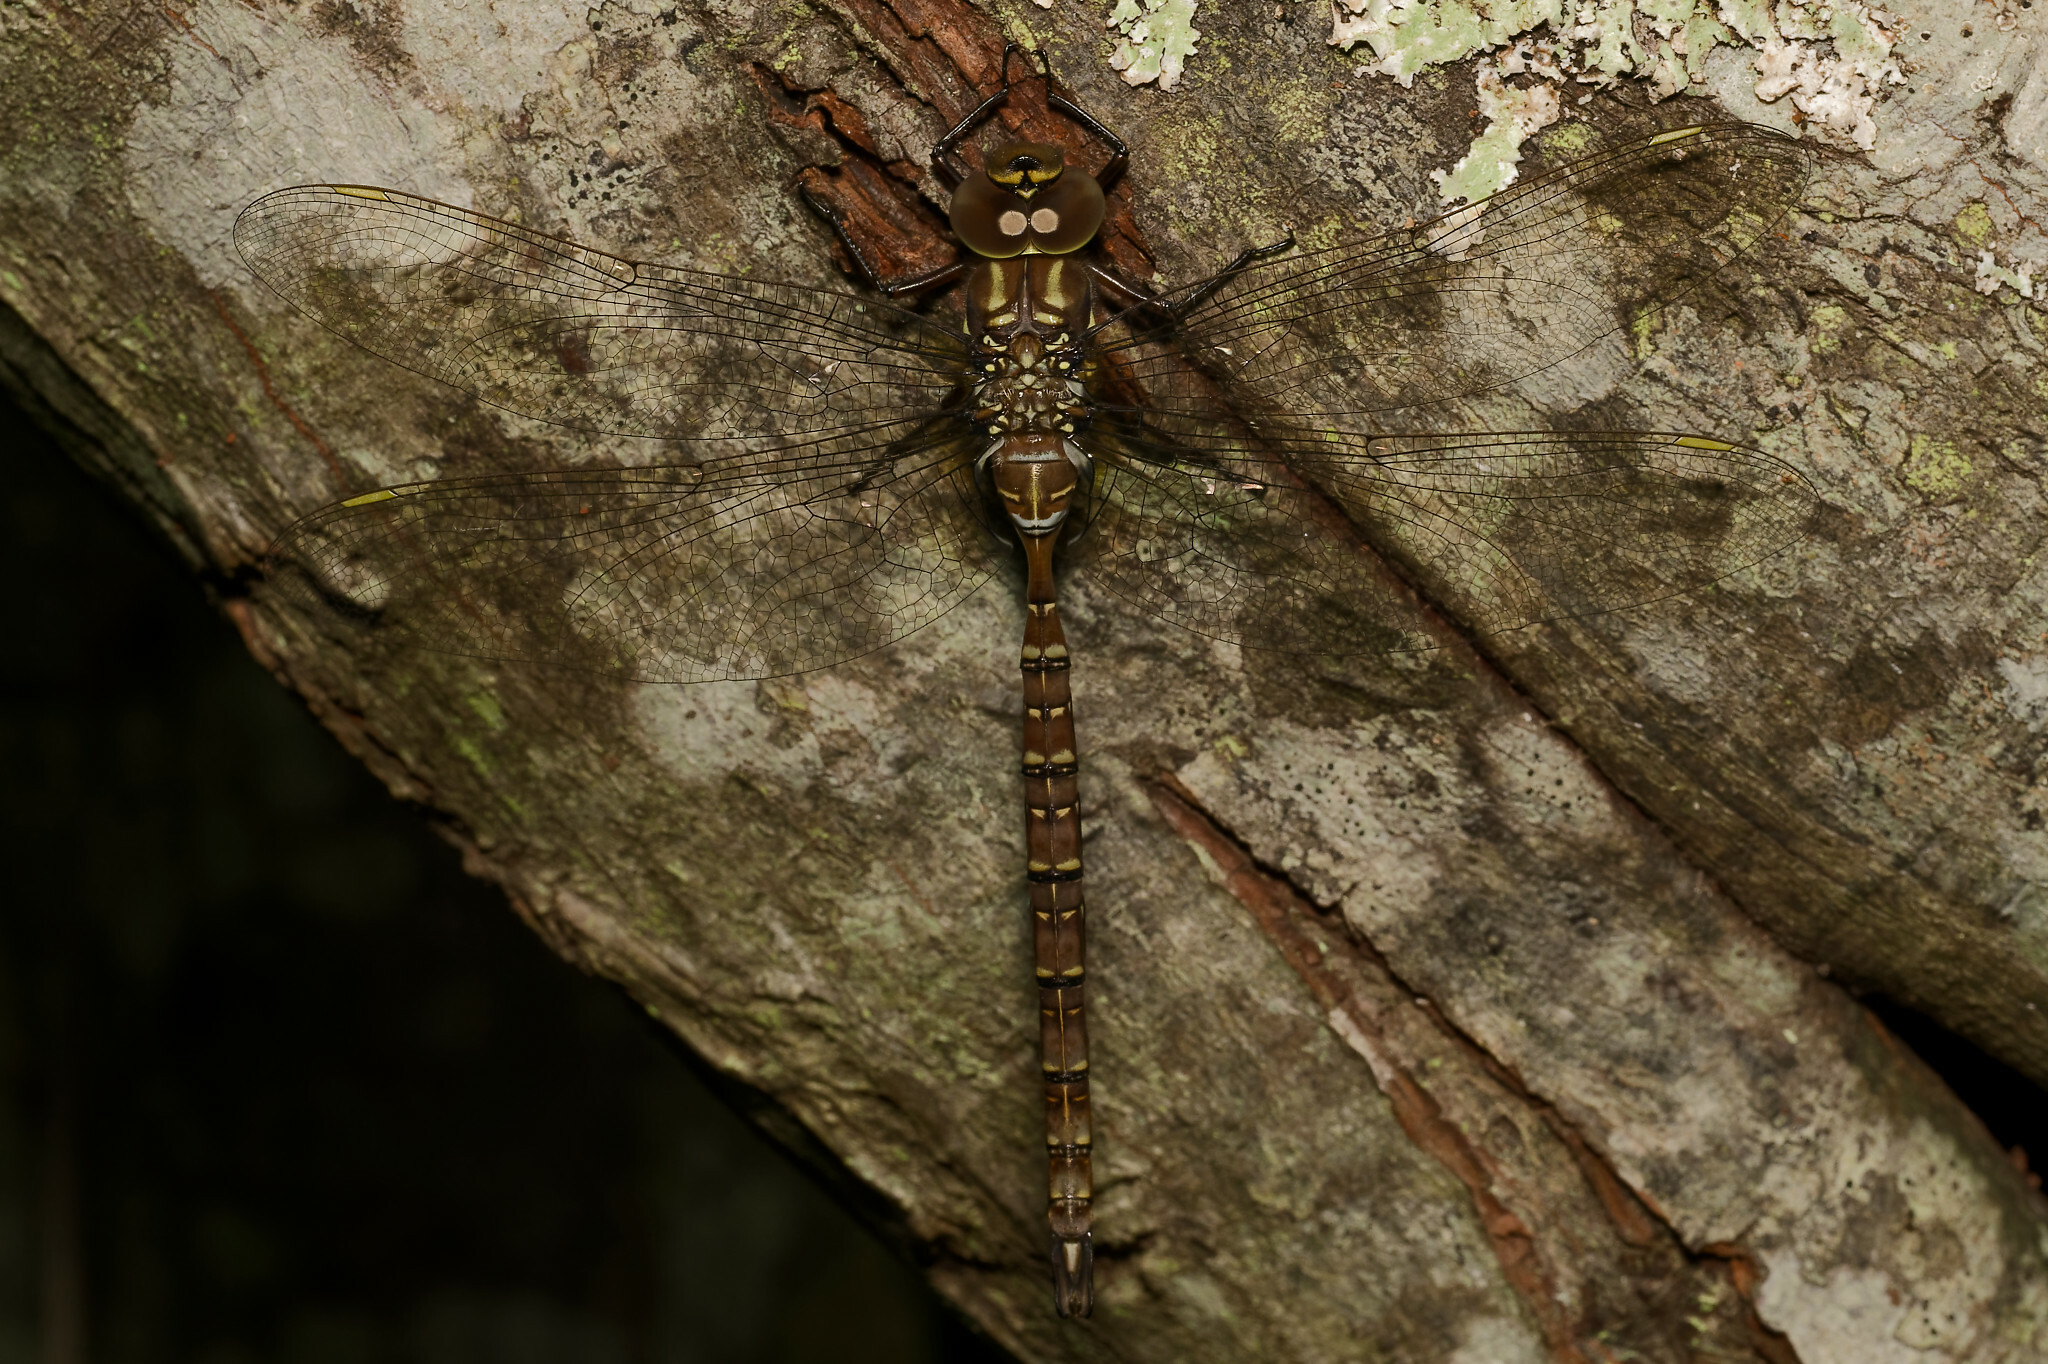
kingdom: Animalia
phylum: Arthropoda
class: Insecta
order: Odonata
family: Aeshnidae
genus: Aeshna
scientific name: Aeshna umbrosa
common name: Shadow darner
